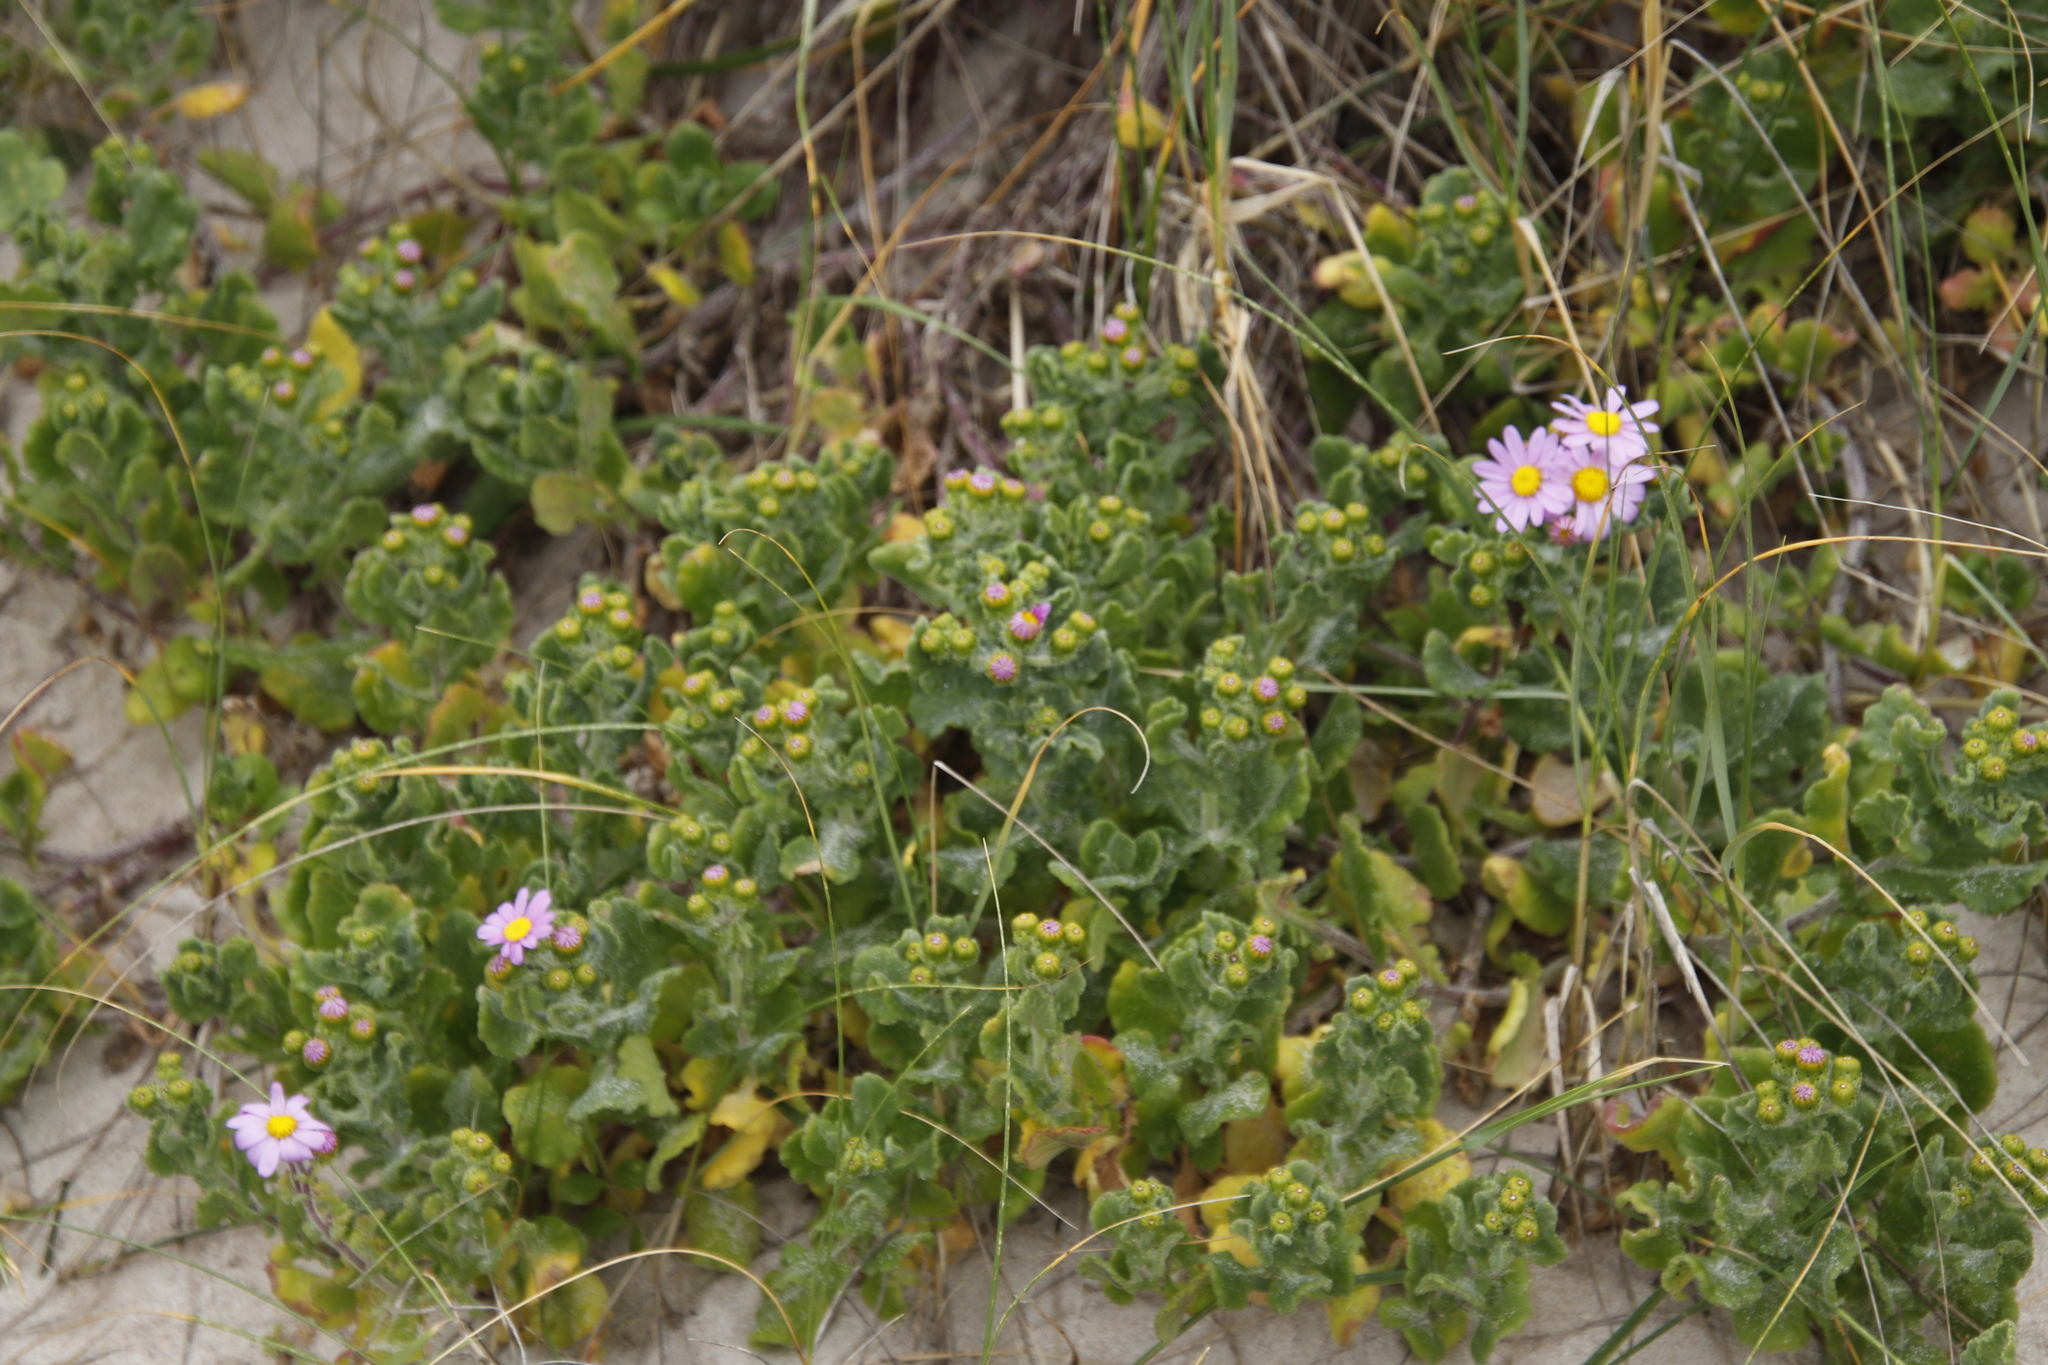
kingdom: Plantae
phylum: Tracheophyta
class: Magnoliopsida
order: Asterales
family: Asteraceae
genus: Senecio
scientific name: Senecio elegans
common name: Purple groundsel
